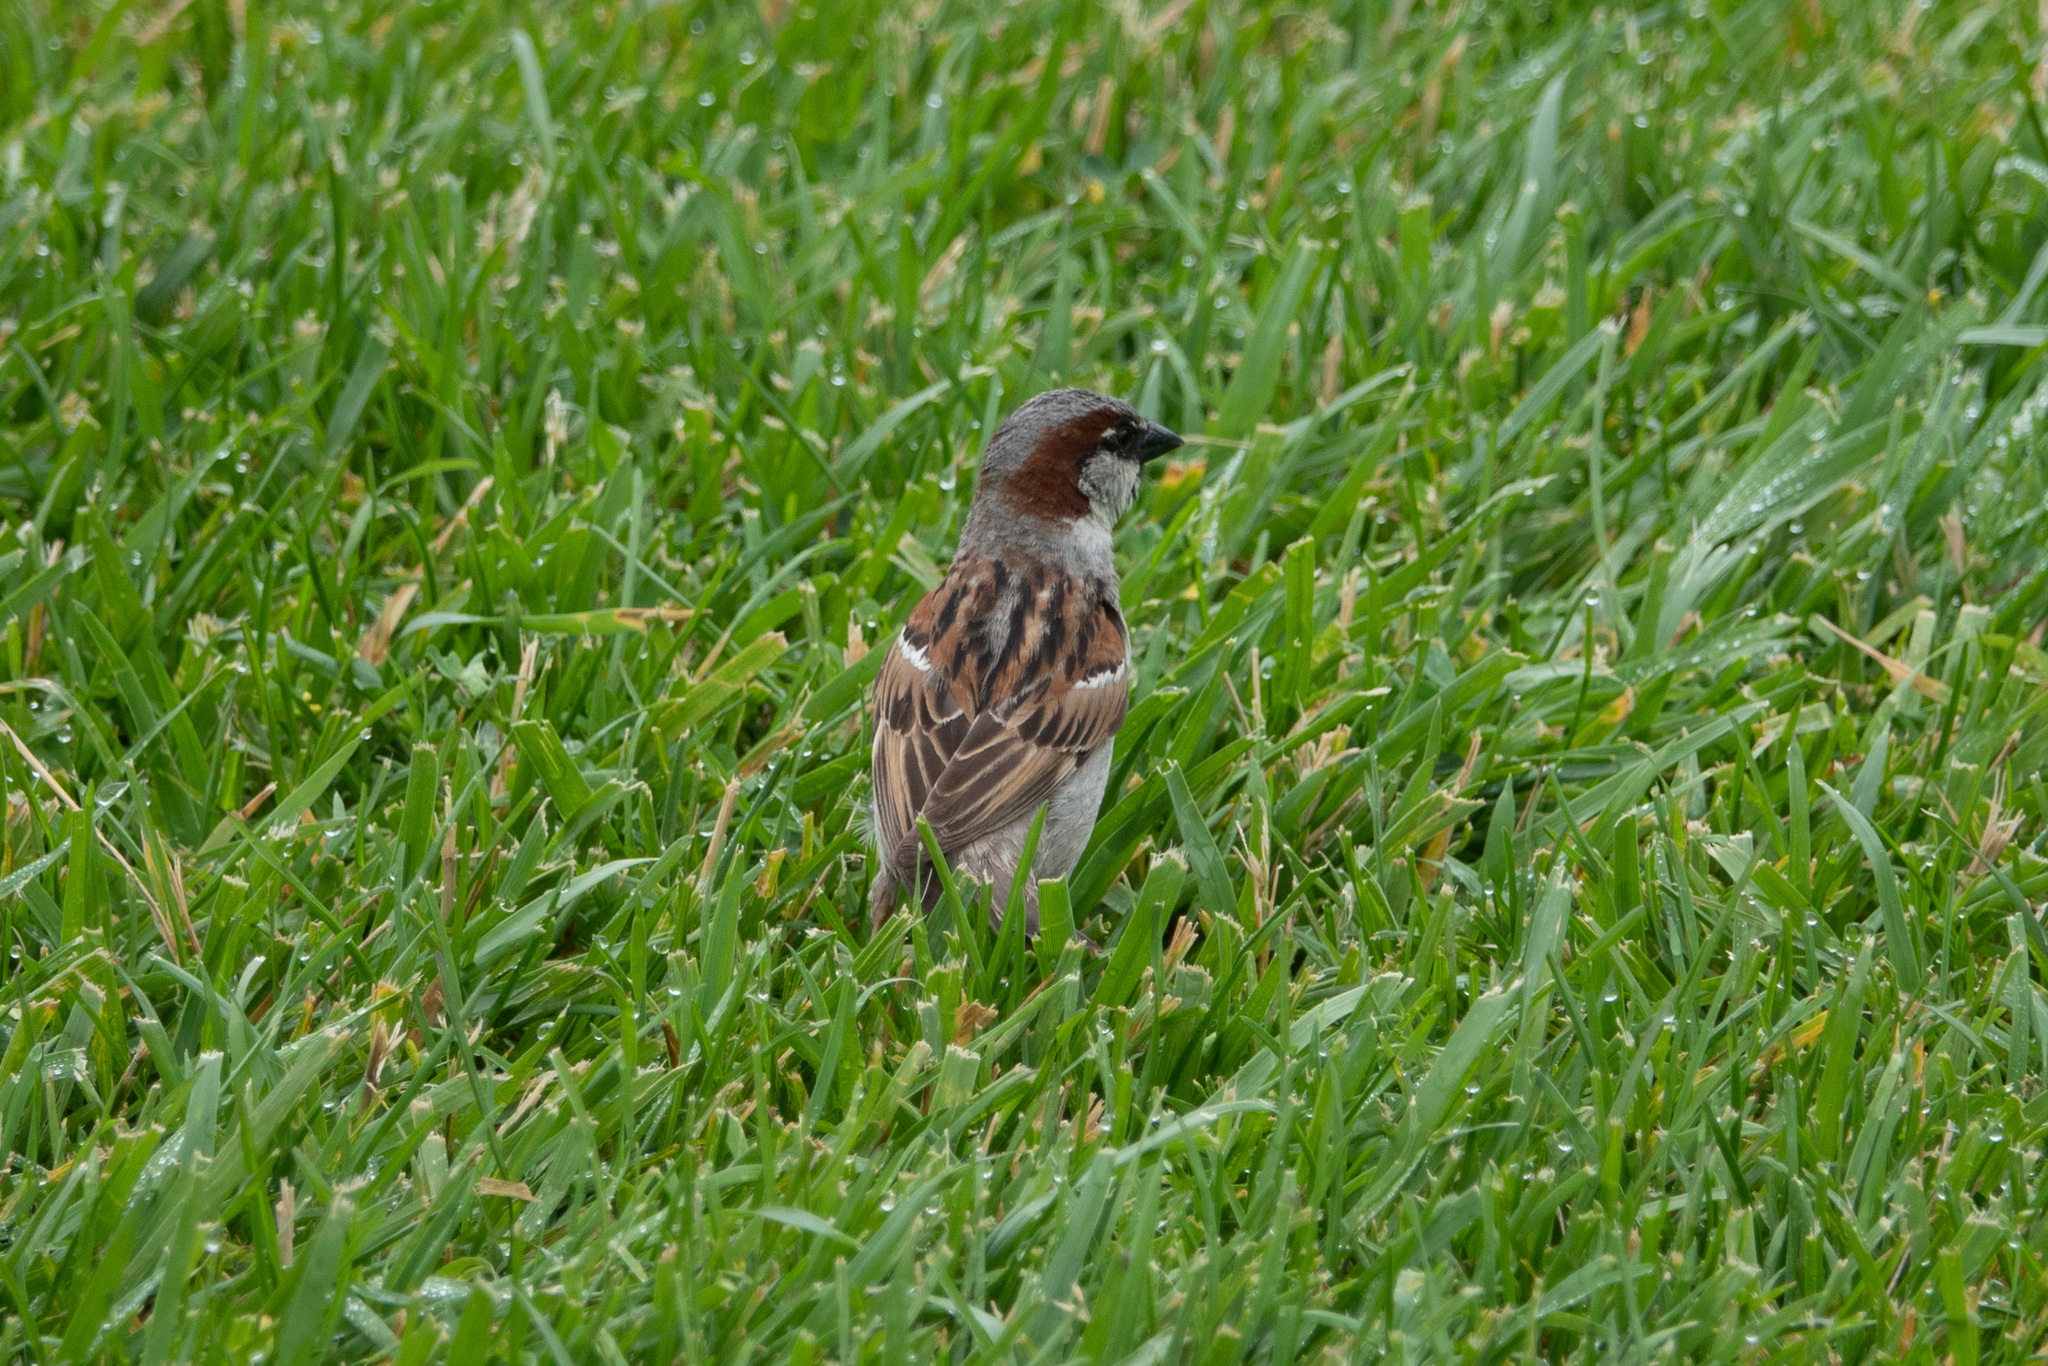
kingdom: Animalia
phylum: Chordata
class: Aves
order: Passeriformes
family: Passeridae
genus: Passer
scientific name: Passer domesticus
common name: House sparrow
